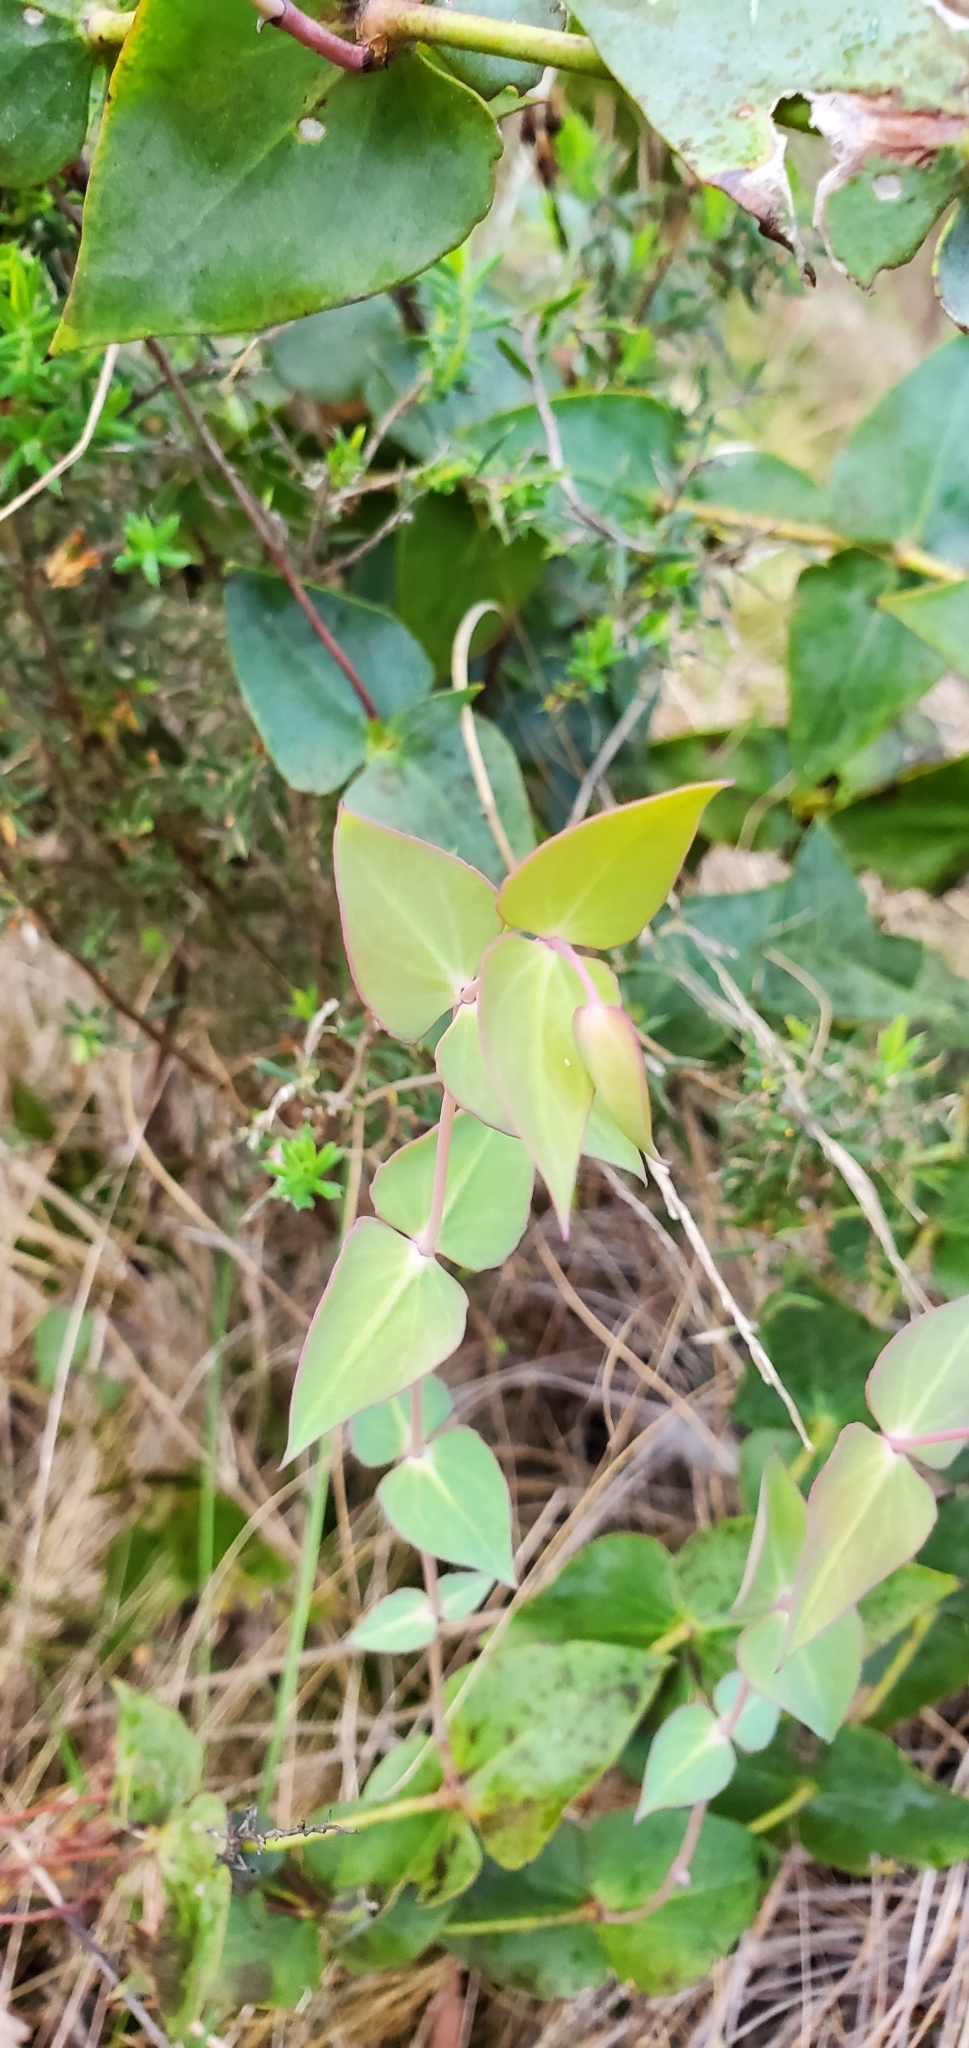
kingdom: Plantae
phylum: Tracheophyta
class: Magnoliopsida
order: Lamiales
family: Plantaginaceae
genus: Veronica
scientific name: Veronica perfoliata
